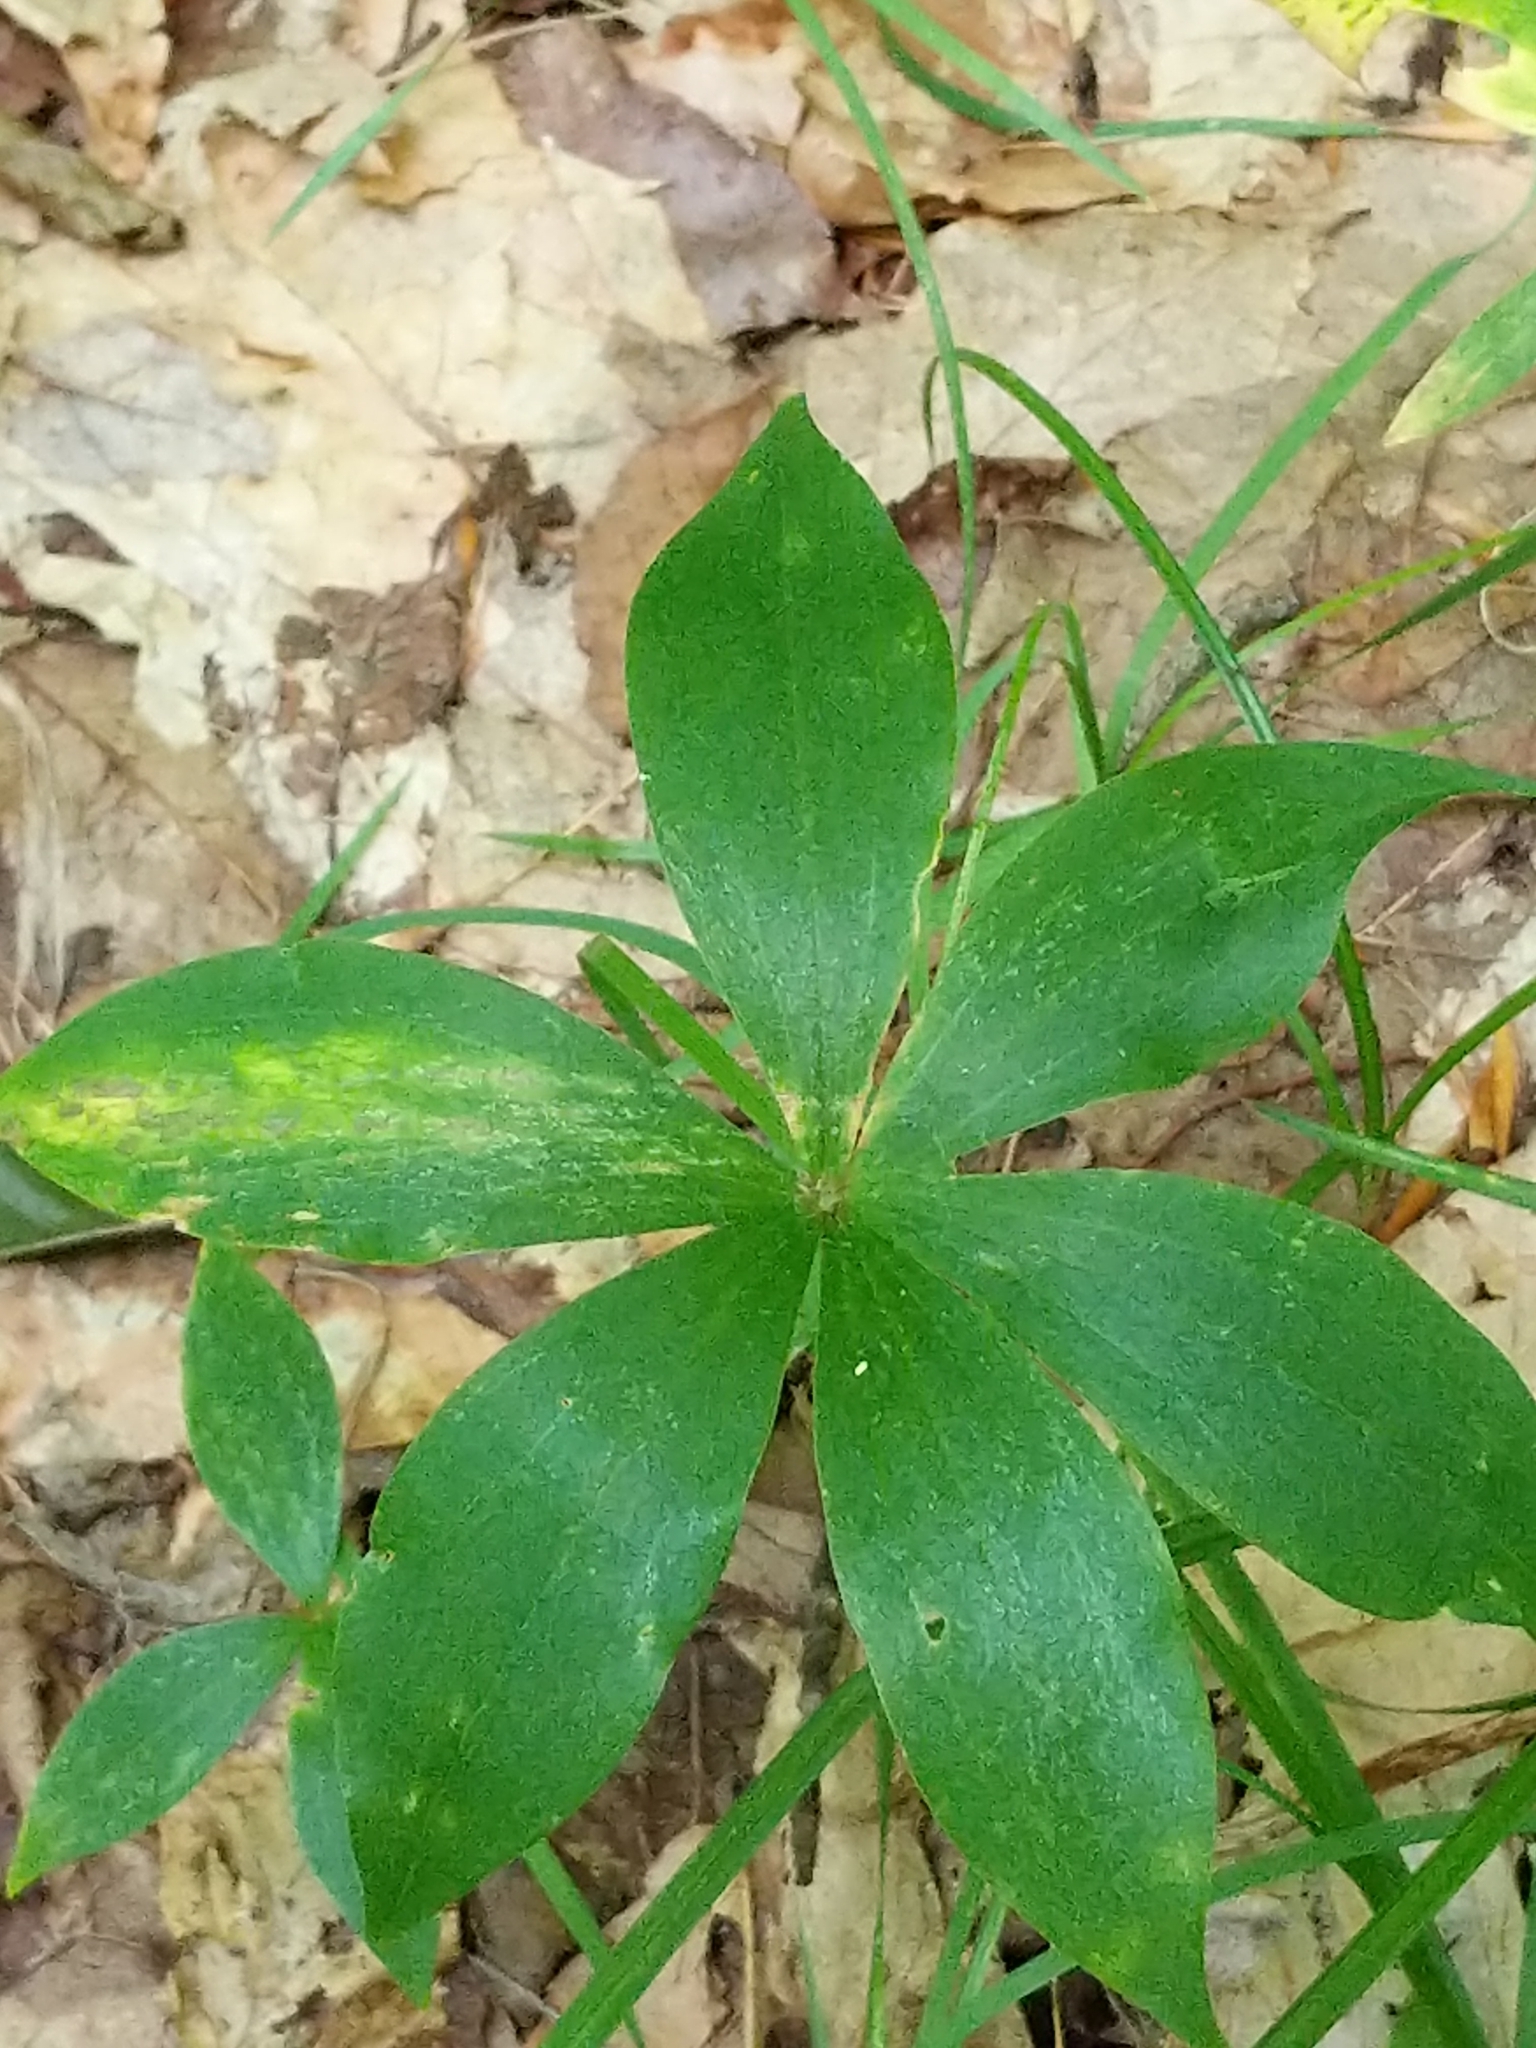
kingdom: Plantae
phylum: Tracheophyta
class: Liliopsida
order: Liliales
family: Liliaceae
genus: Medeola
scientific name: Medeola virginiana
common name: Indian cucumber-root
